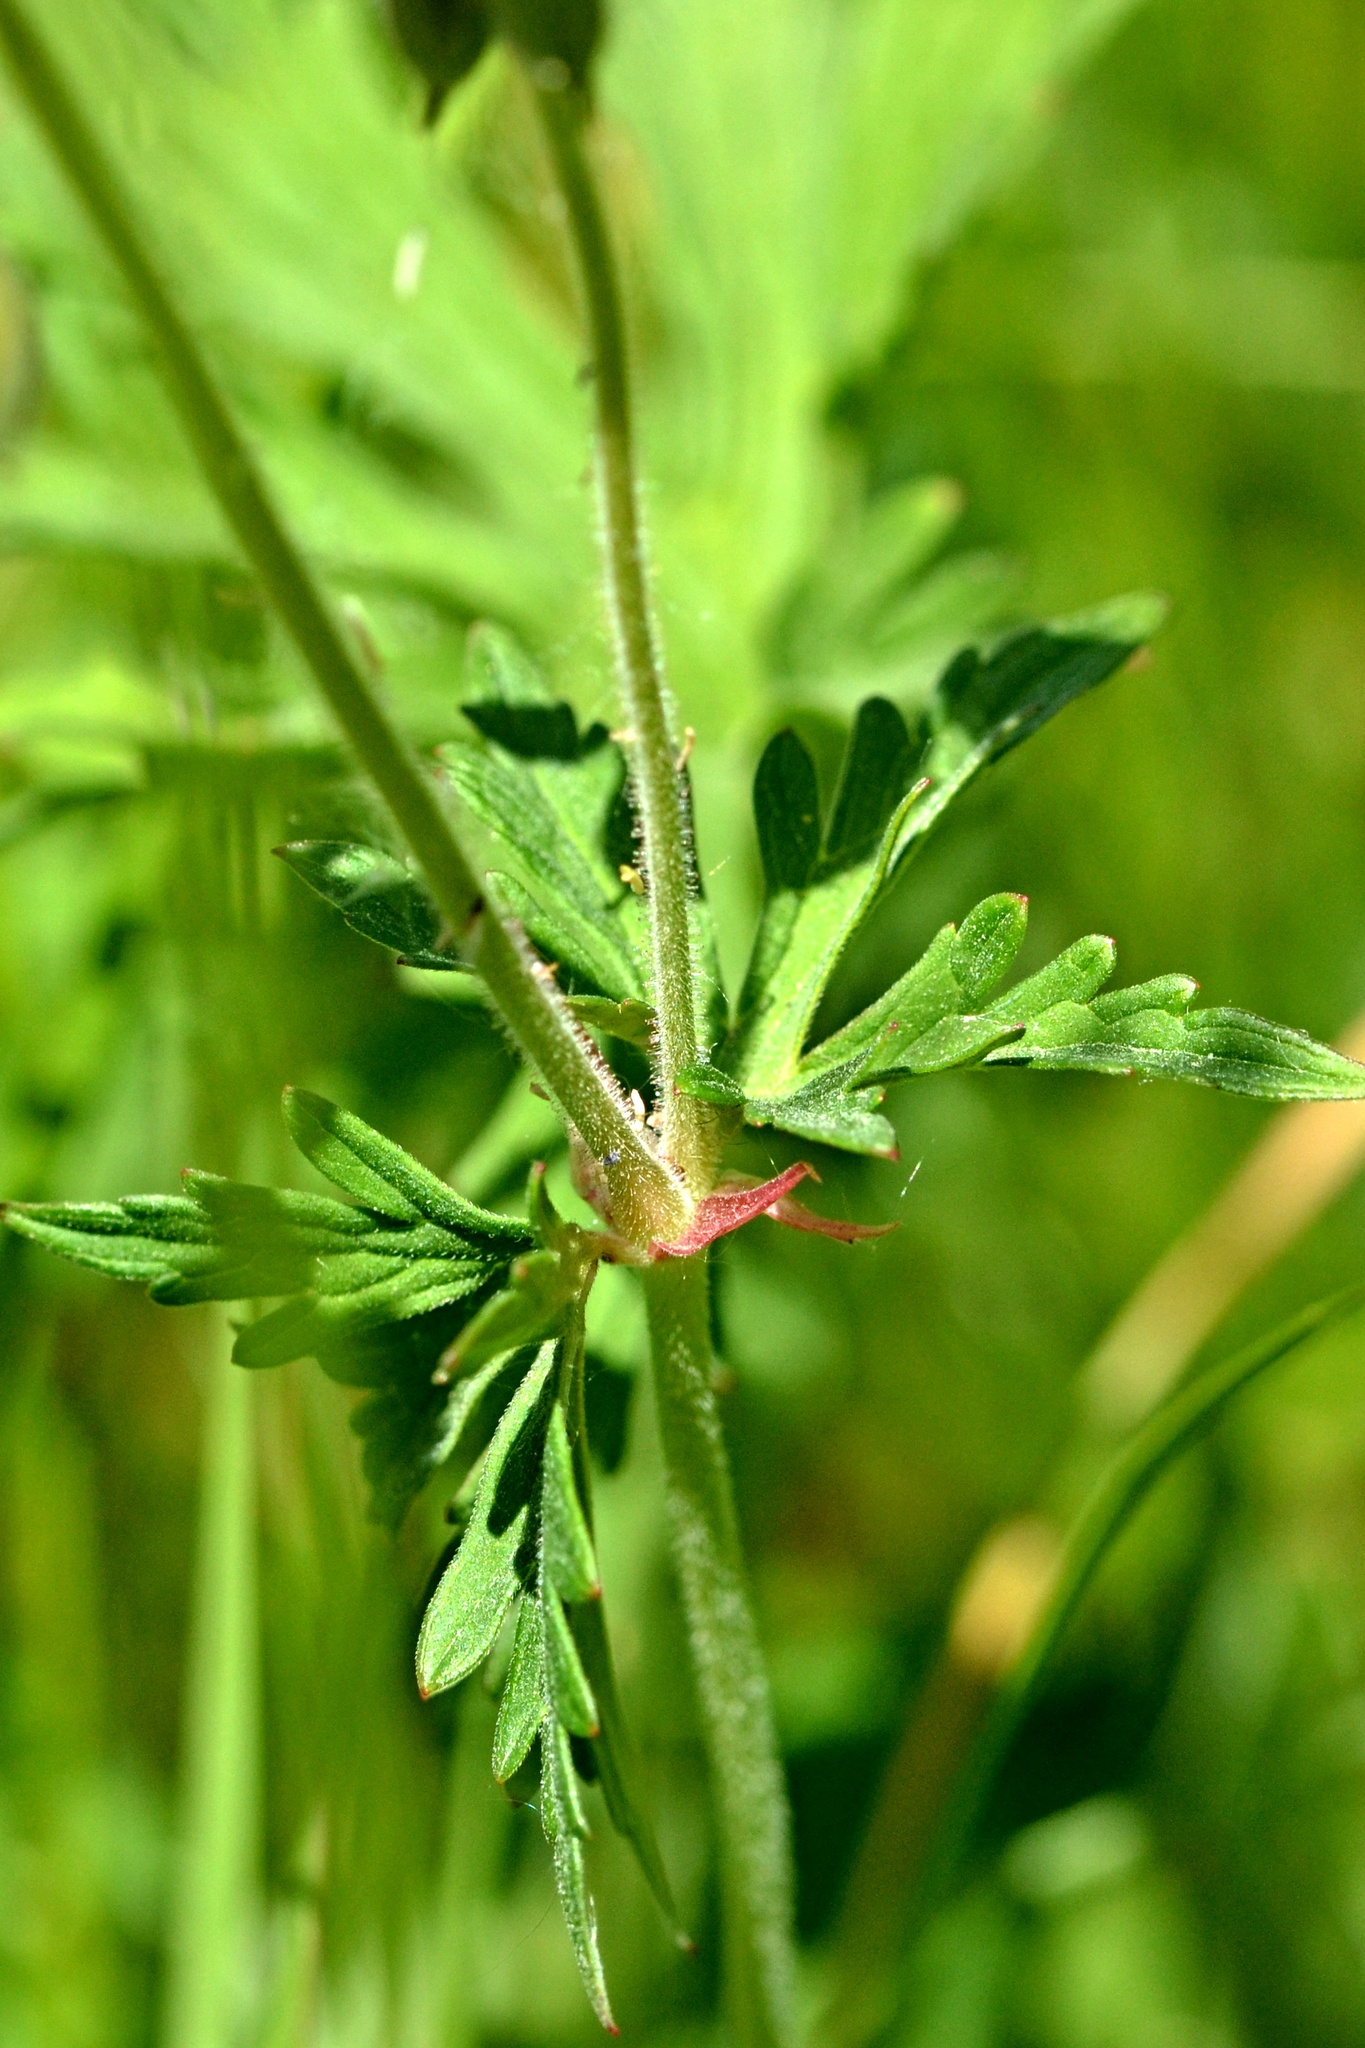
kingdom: Plantae
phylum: Tracheophyta
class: Magnoliopsida
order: Geraniales
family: Geraniaceae
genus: Geranium
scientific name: Geranium pratense
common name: Meadow crane's-bill
